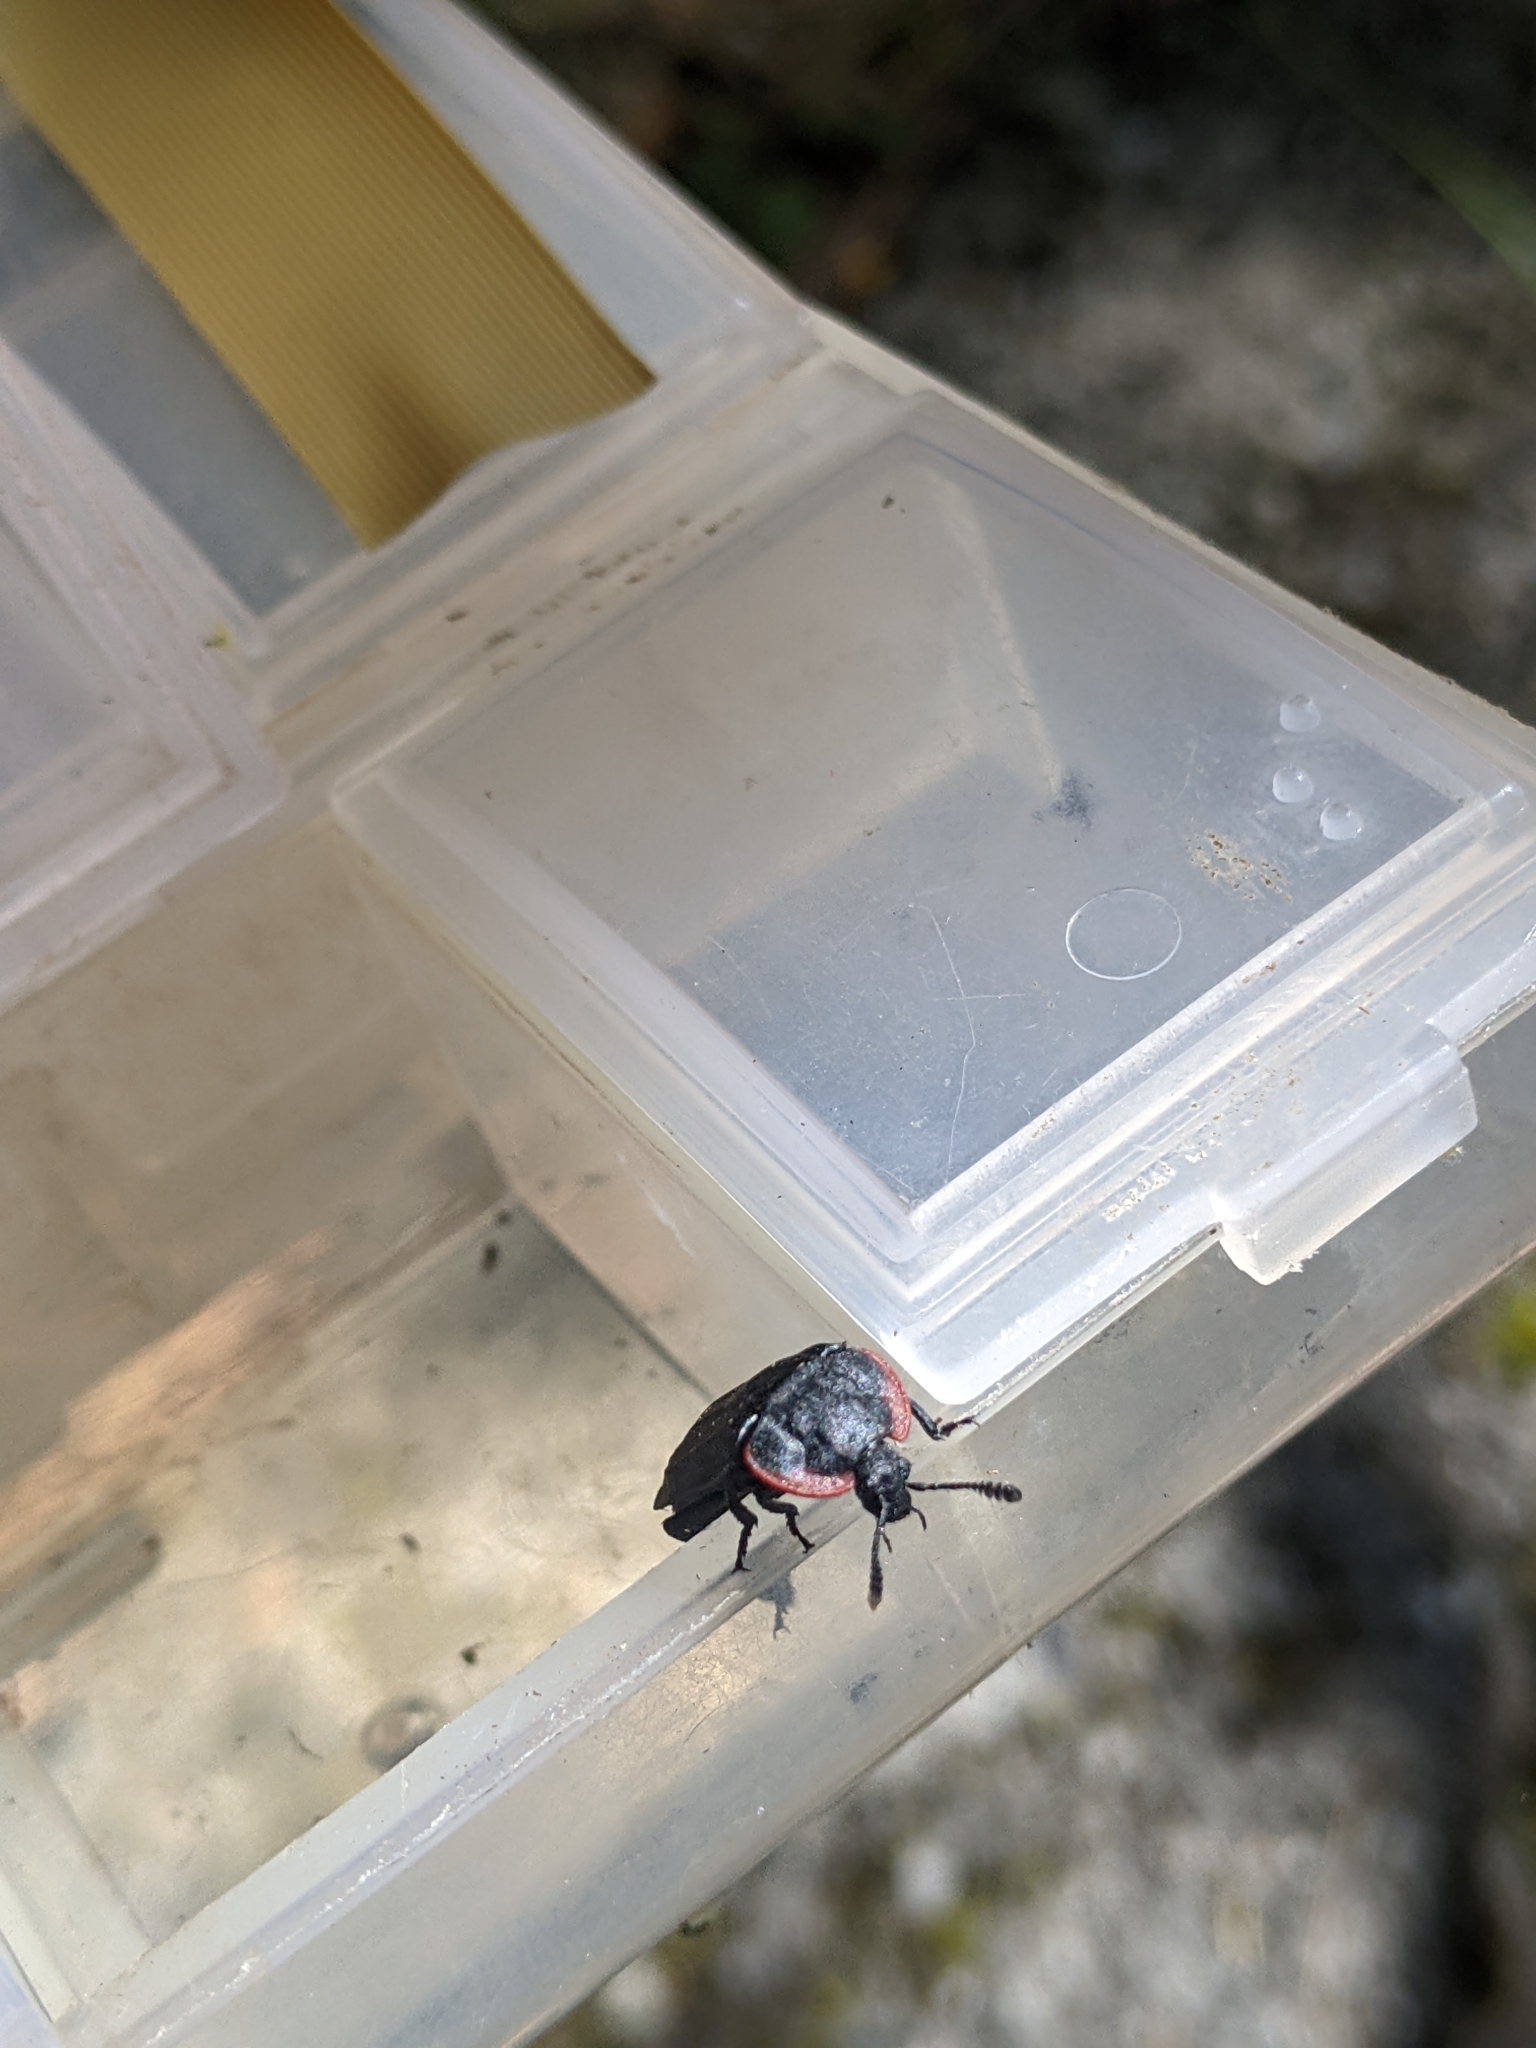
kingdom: Animalia
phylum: Arthropoda
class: Insecta
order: Coleoptera
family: Staphylinidae
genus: Oiceoptoma
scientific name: Oiceoptoma nakabayashii
